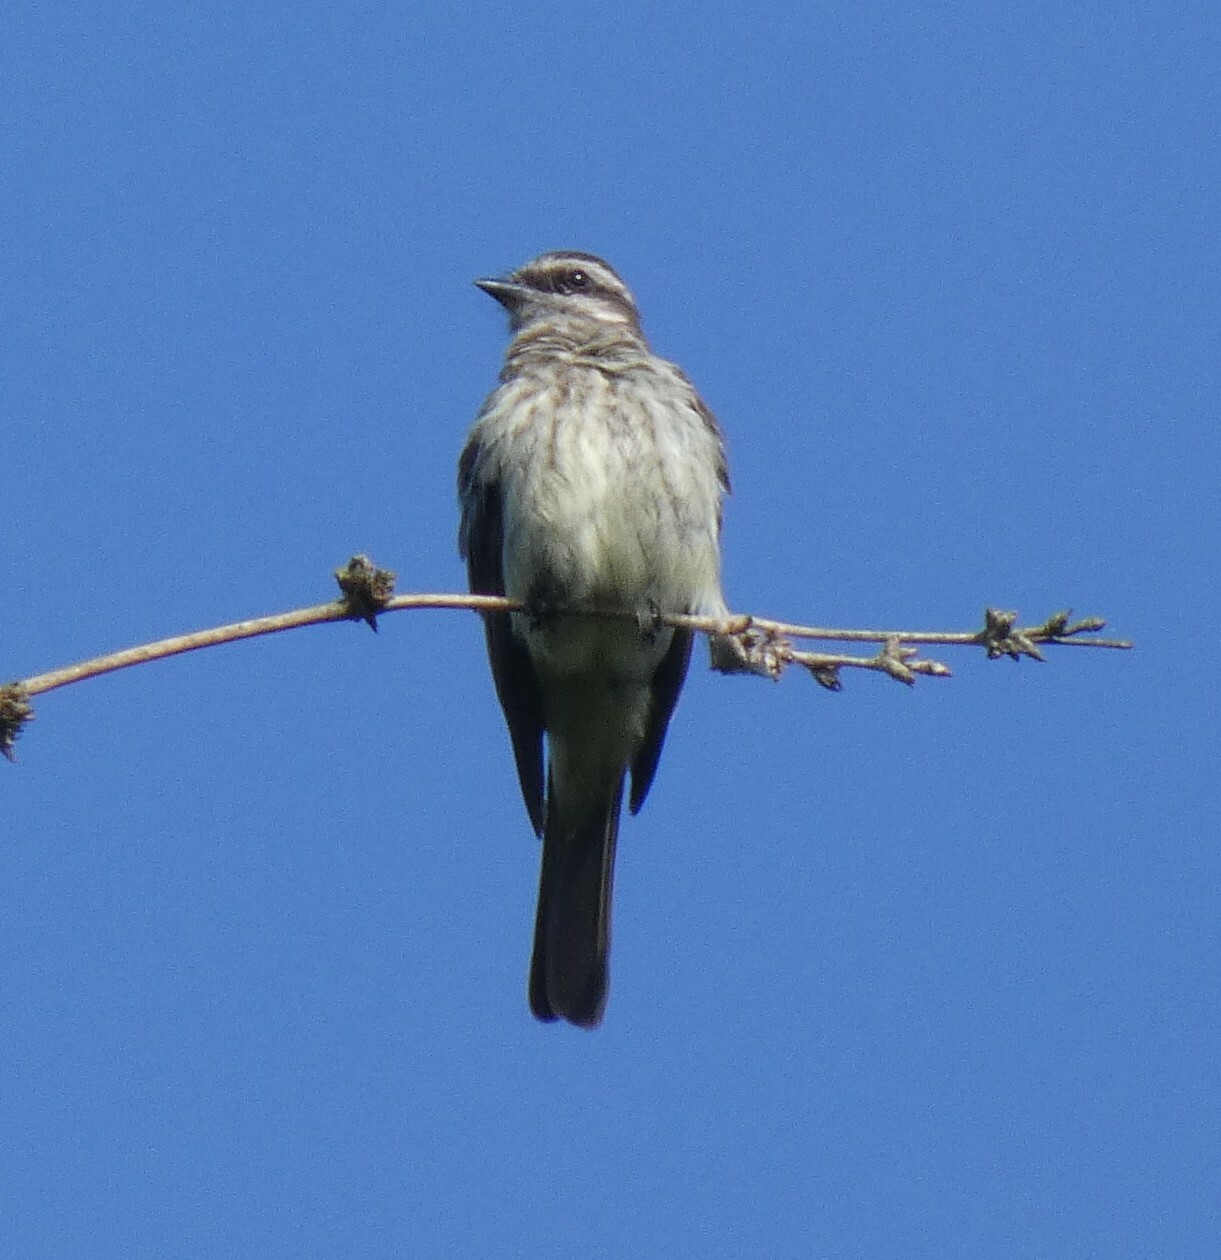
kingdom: Animalia
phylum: Chordata
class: Aves
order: Passeriformes
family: Tyrannidae
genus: Empidonomus
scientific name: Empidonomus varius
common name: Variegated flycatcher
